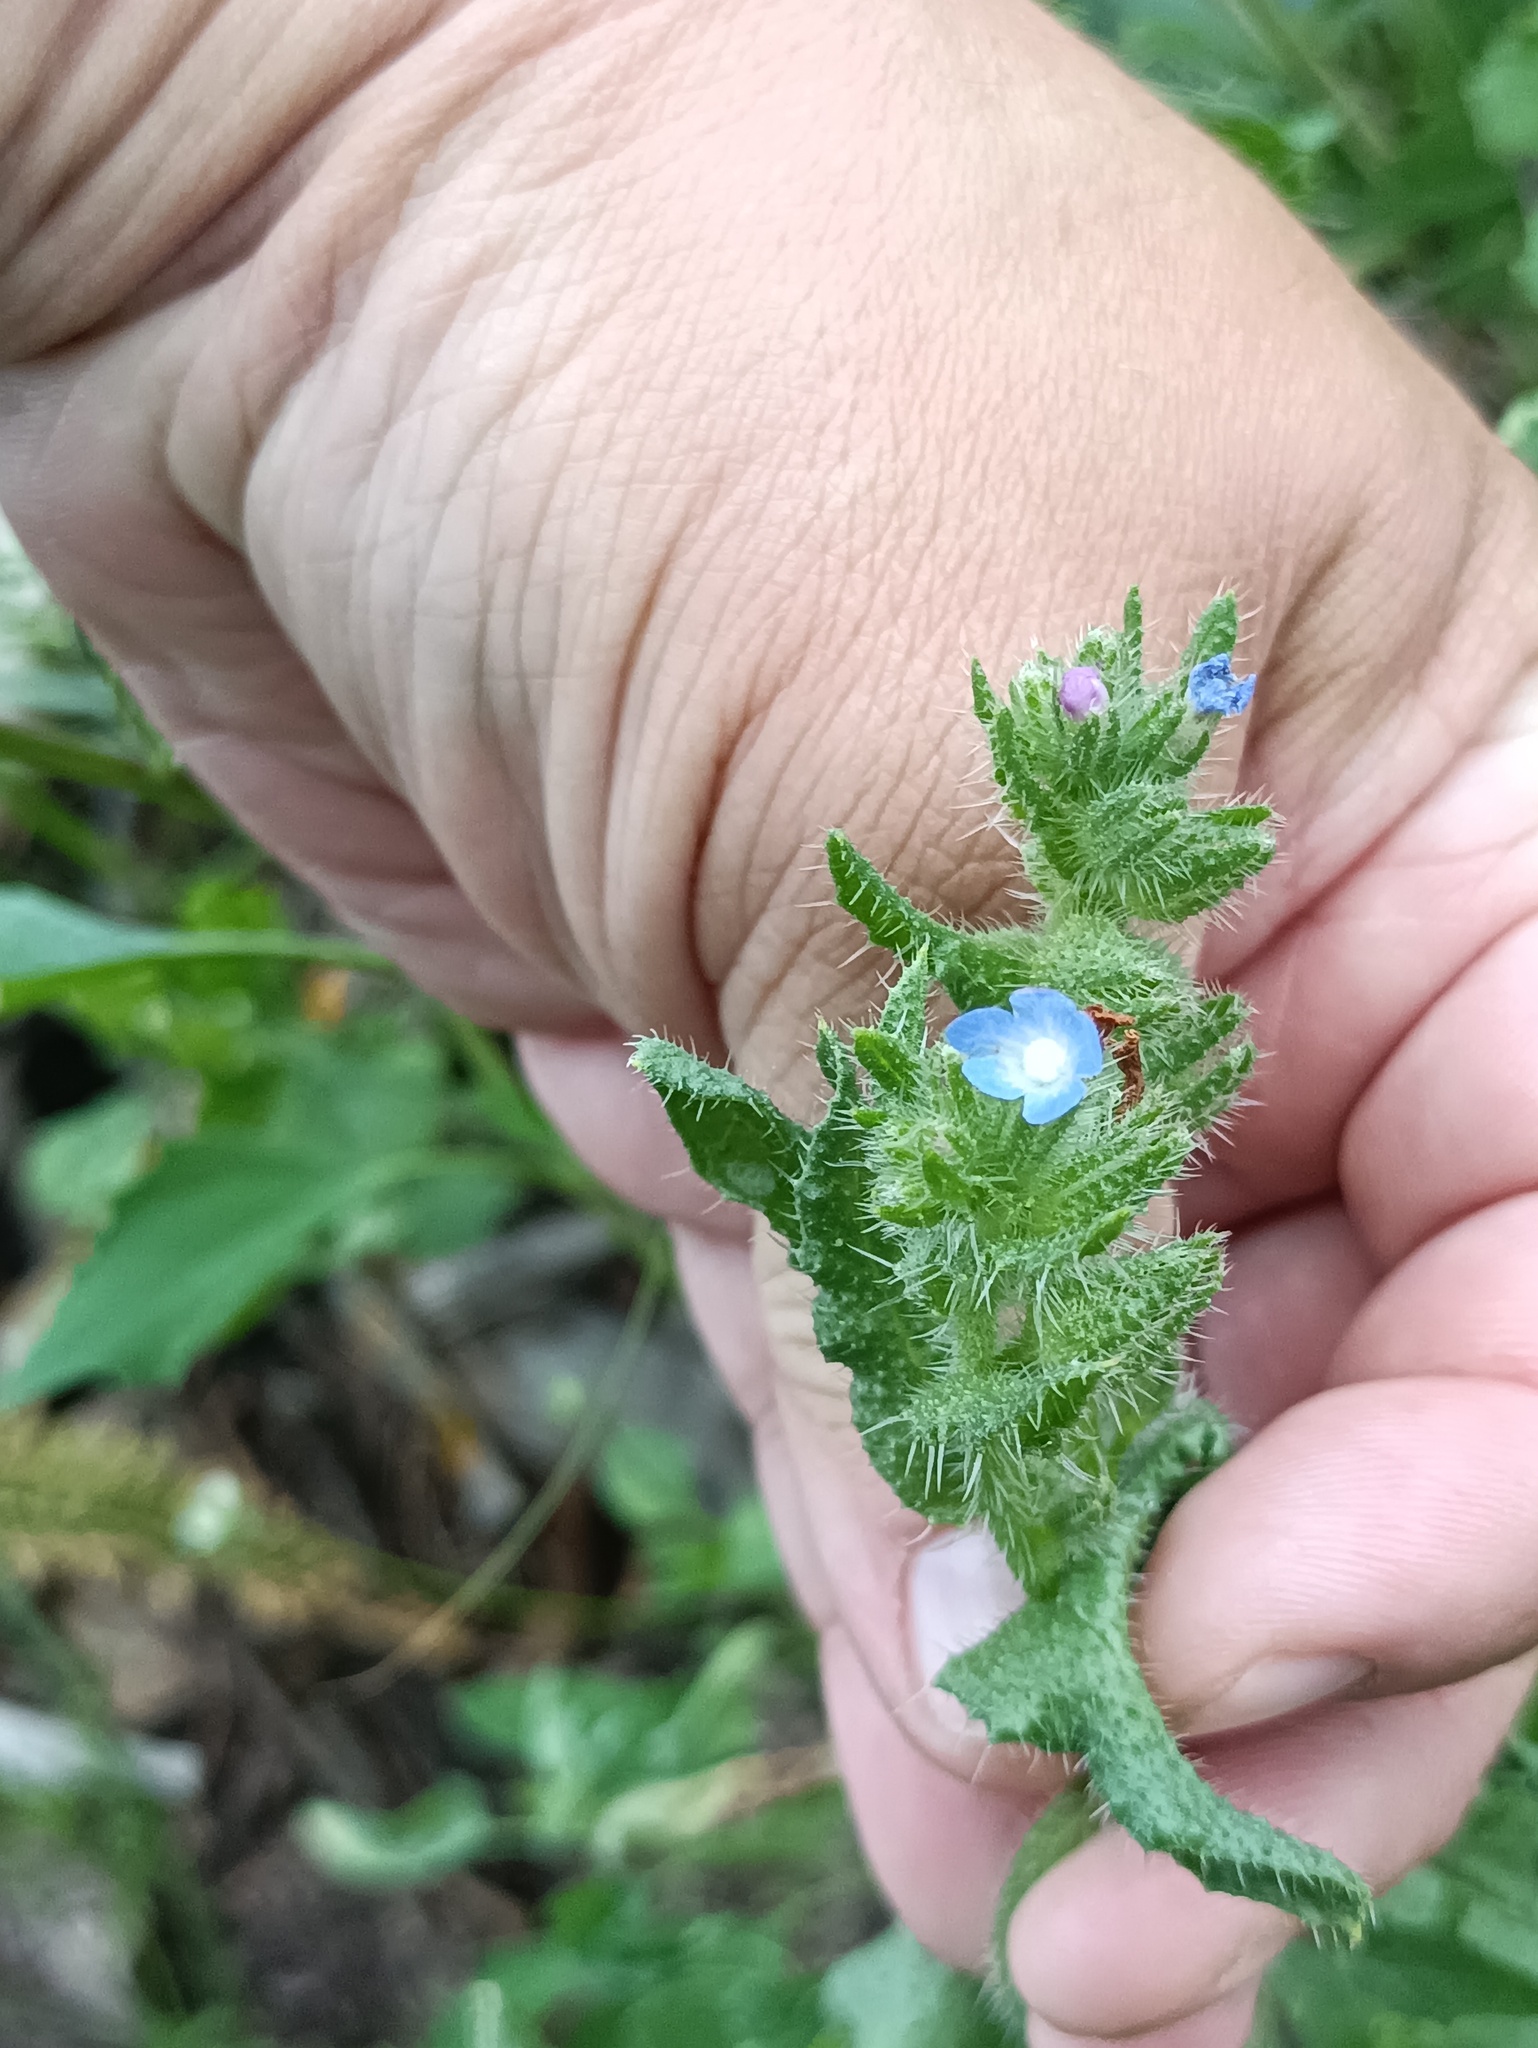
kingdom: Plantae
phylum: Tracheophyta
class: Magnoliopsida
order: Boraginales
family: Boraginaceae
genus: Lycopsis
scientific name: Lycopsis arvensis
